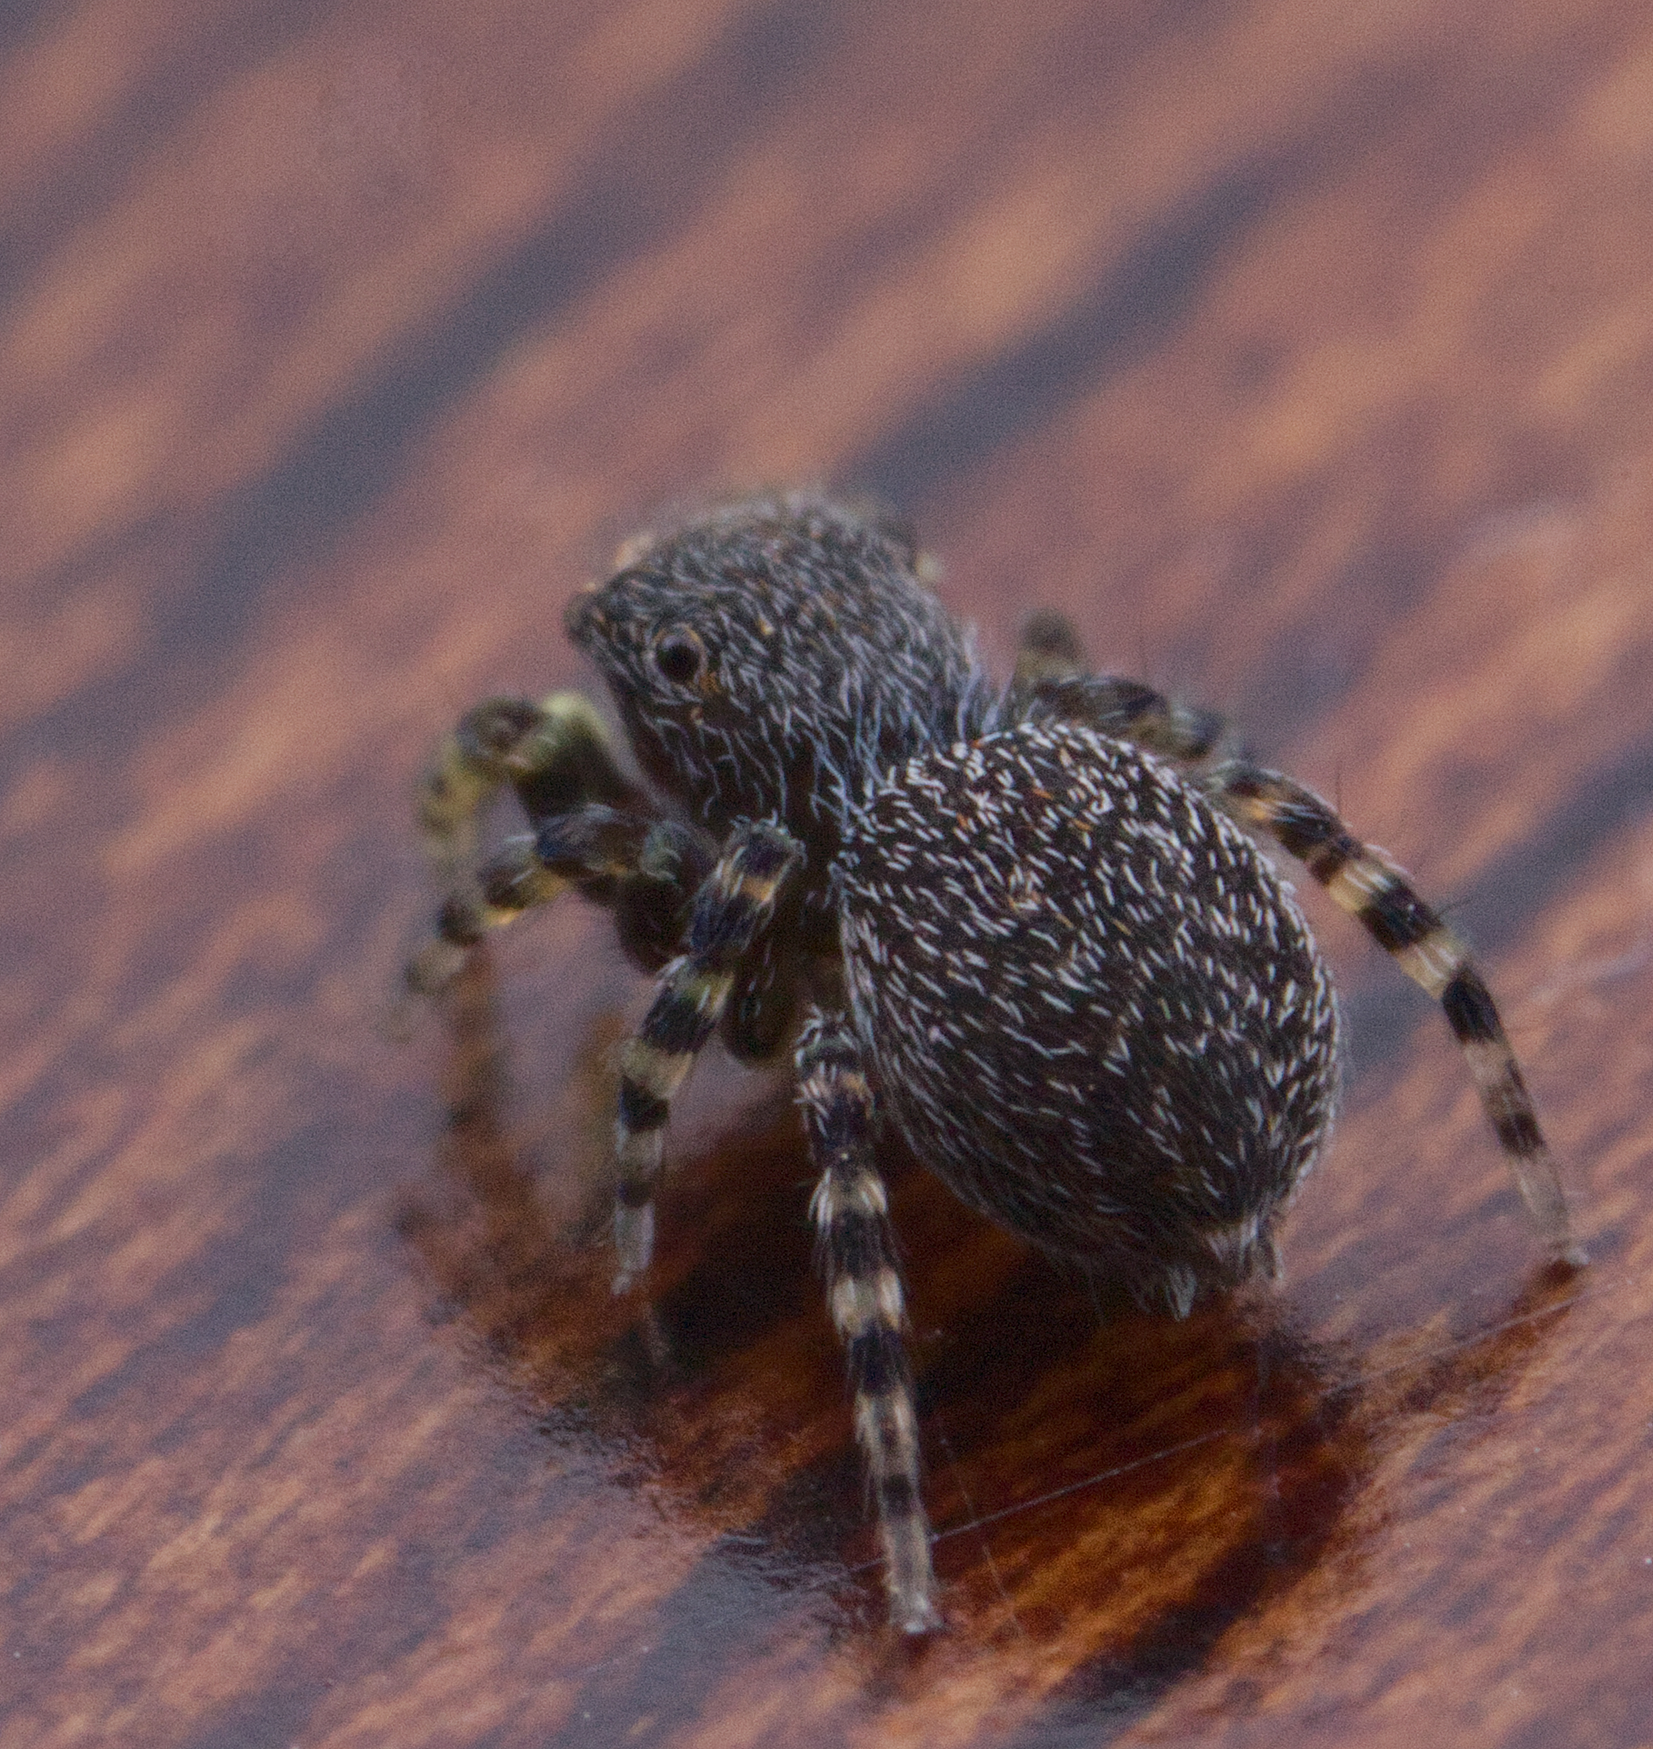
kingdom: Animalia
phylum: Arthropoda
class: Arachnida
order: Araneae
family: Salticidae
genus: Talavera
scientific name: Talavera minuta
